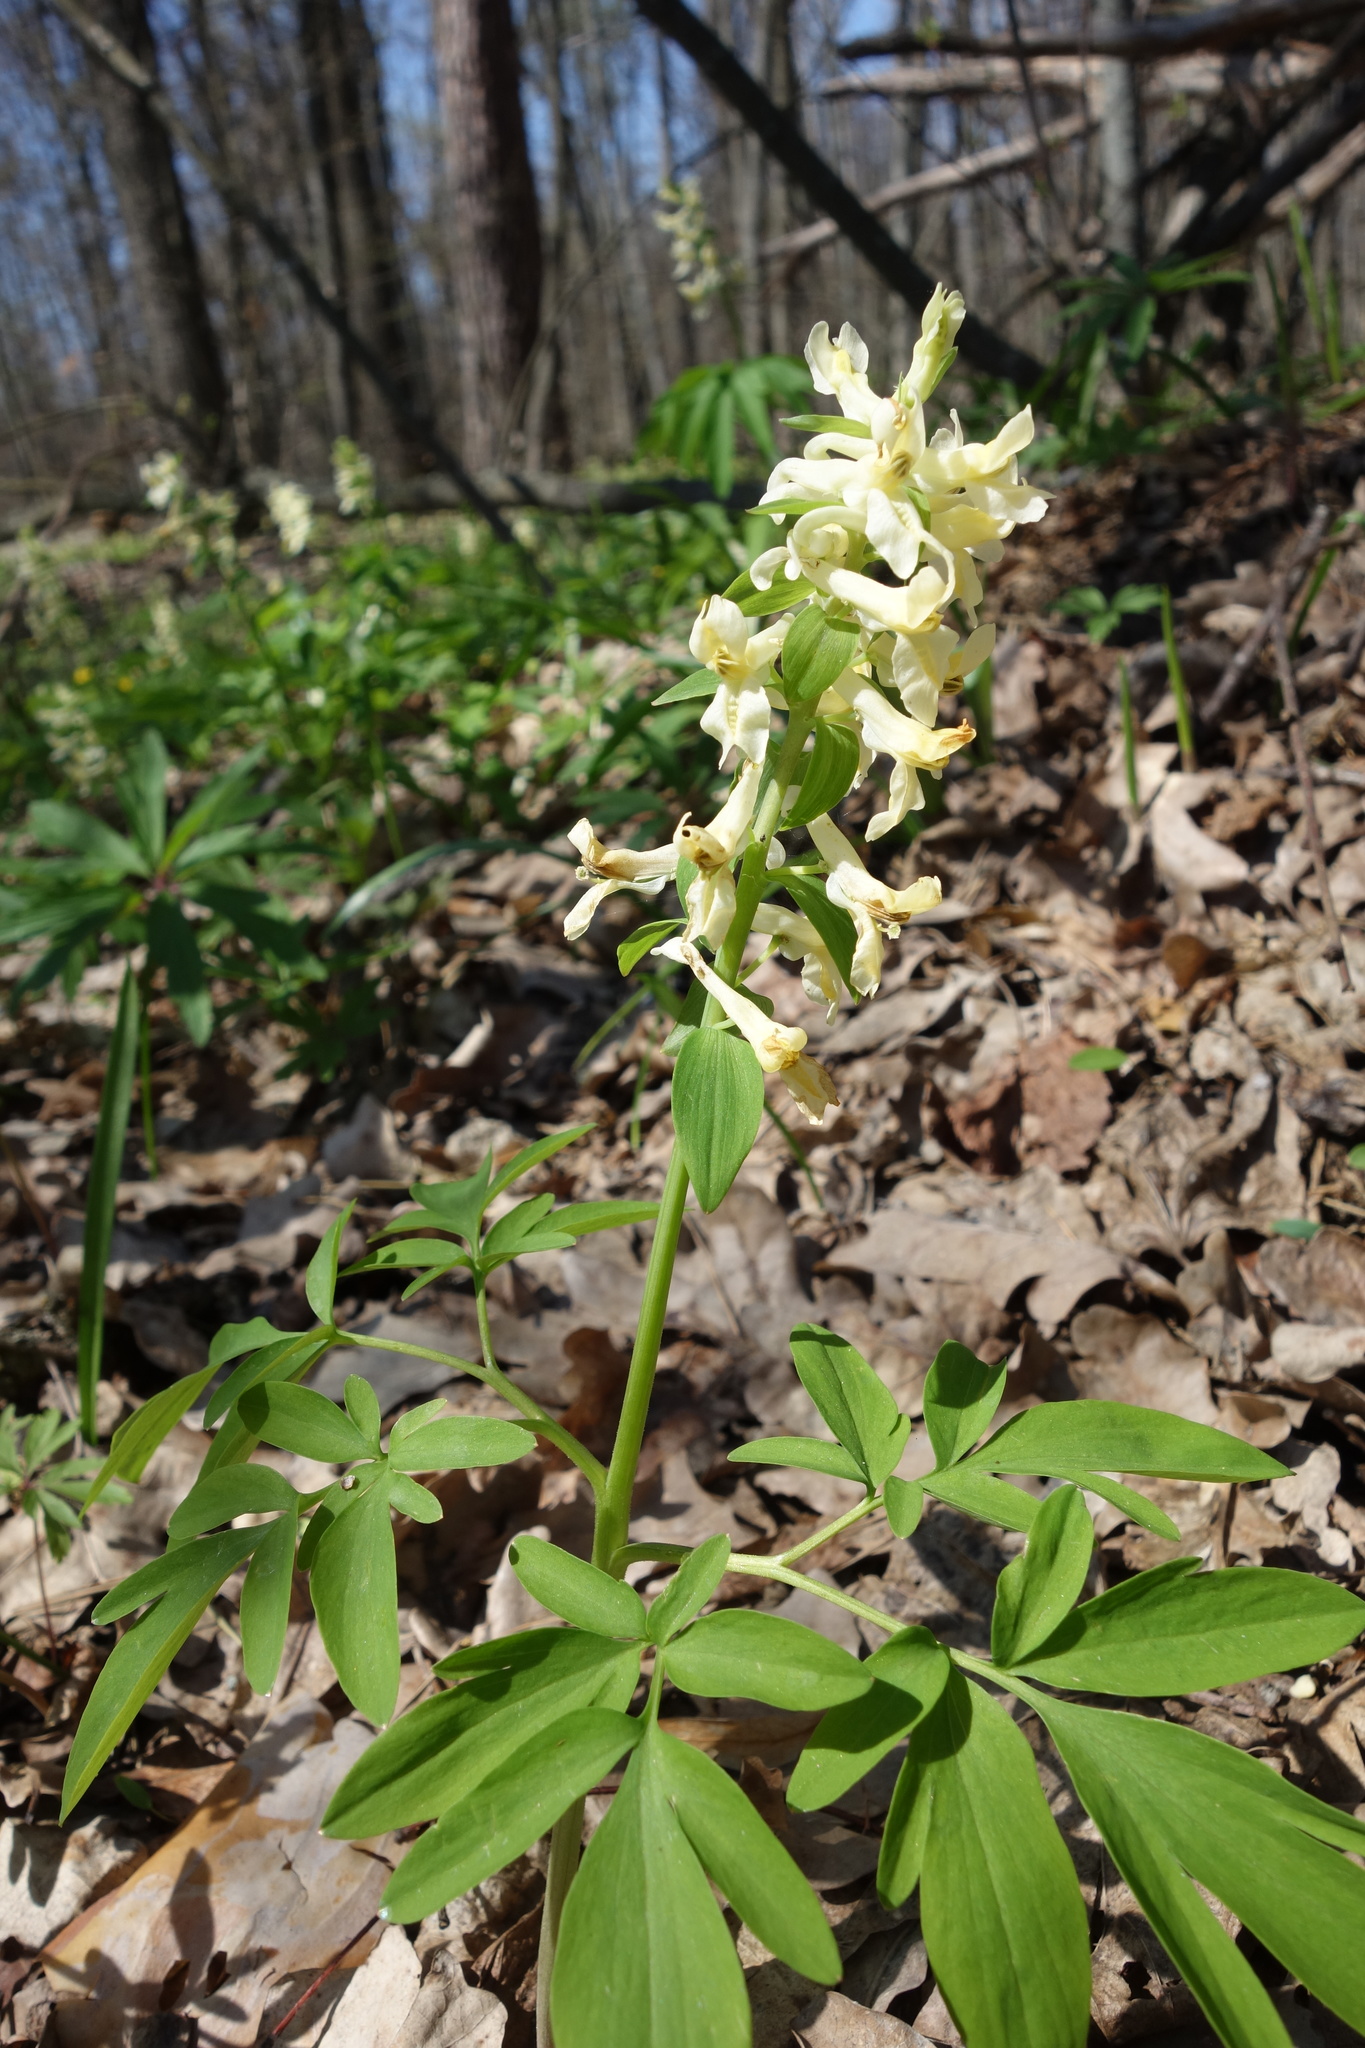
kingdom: Plantae
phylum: Tracheophyta
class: Magnoliopsida
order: Ranunculales
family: Papaveraceae
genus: Corydalis
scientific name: Corydalis cava
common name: Hollowroot
